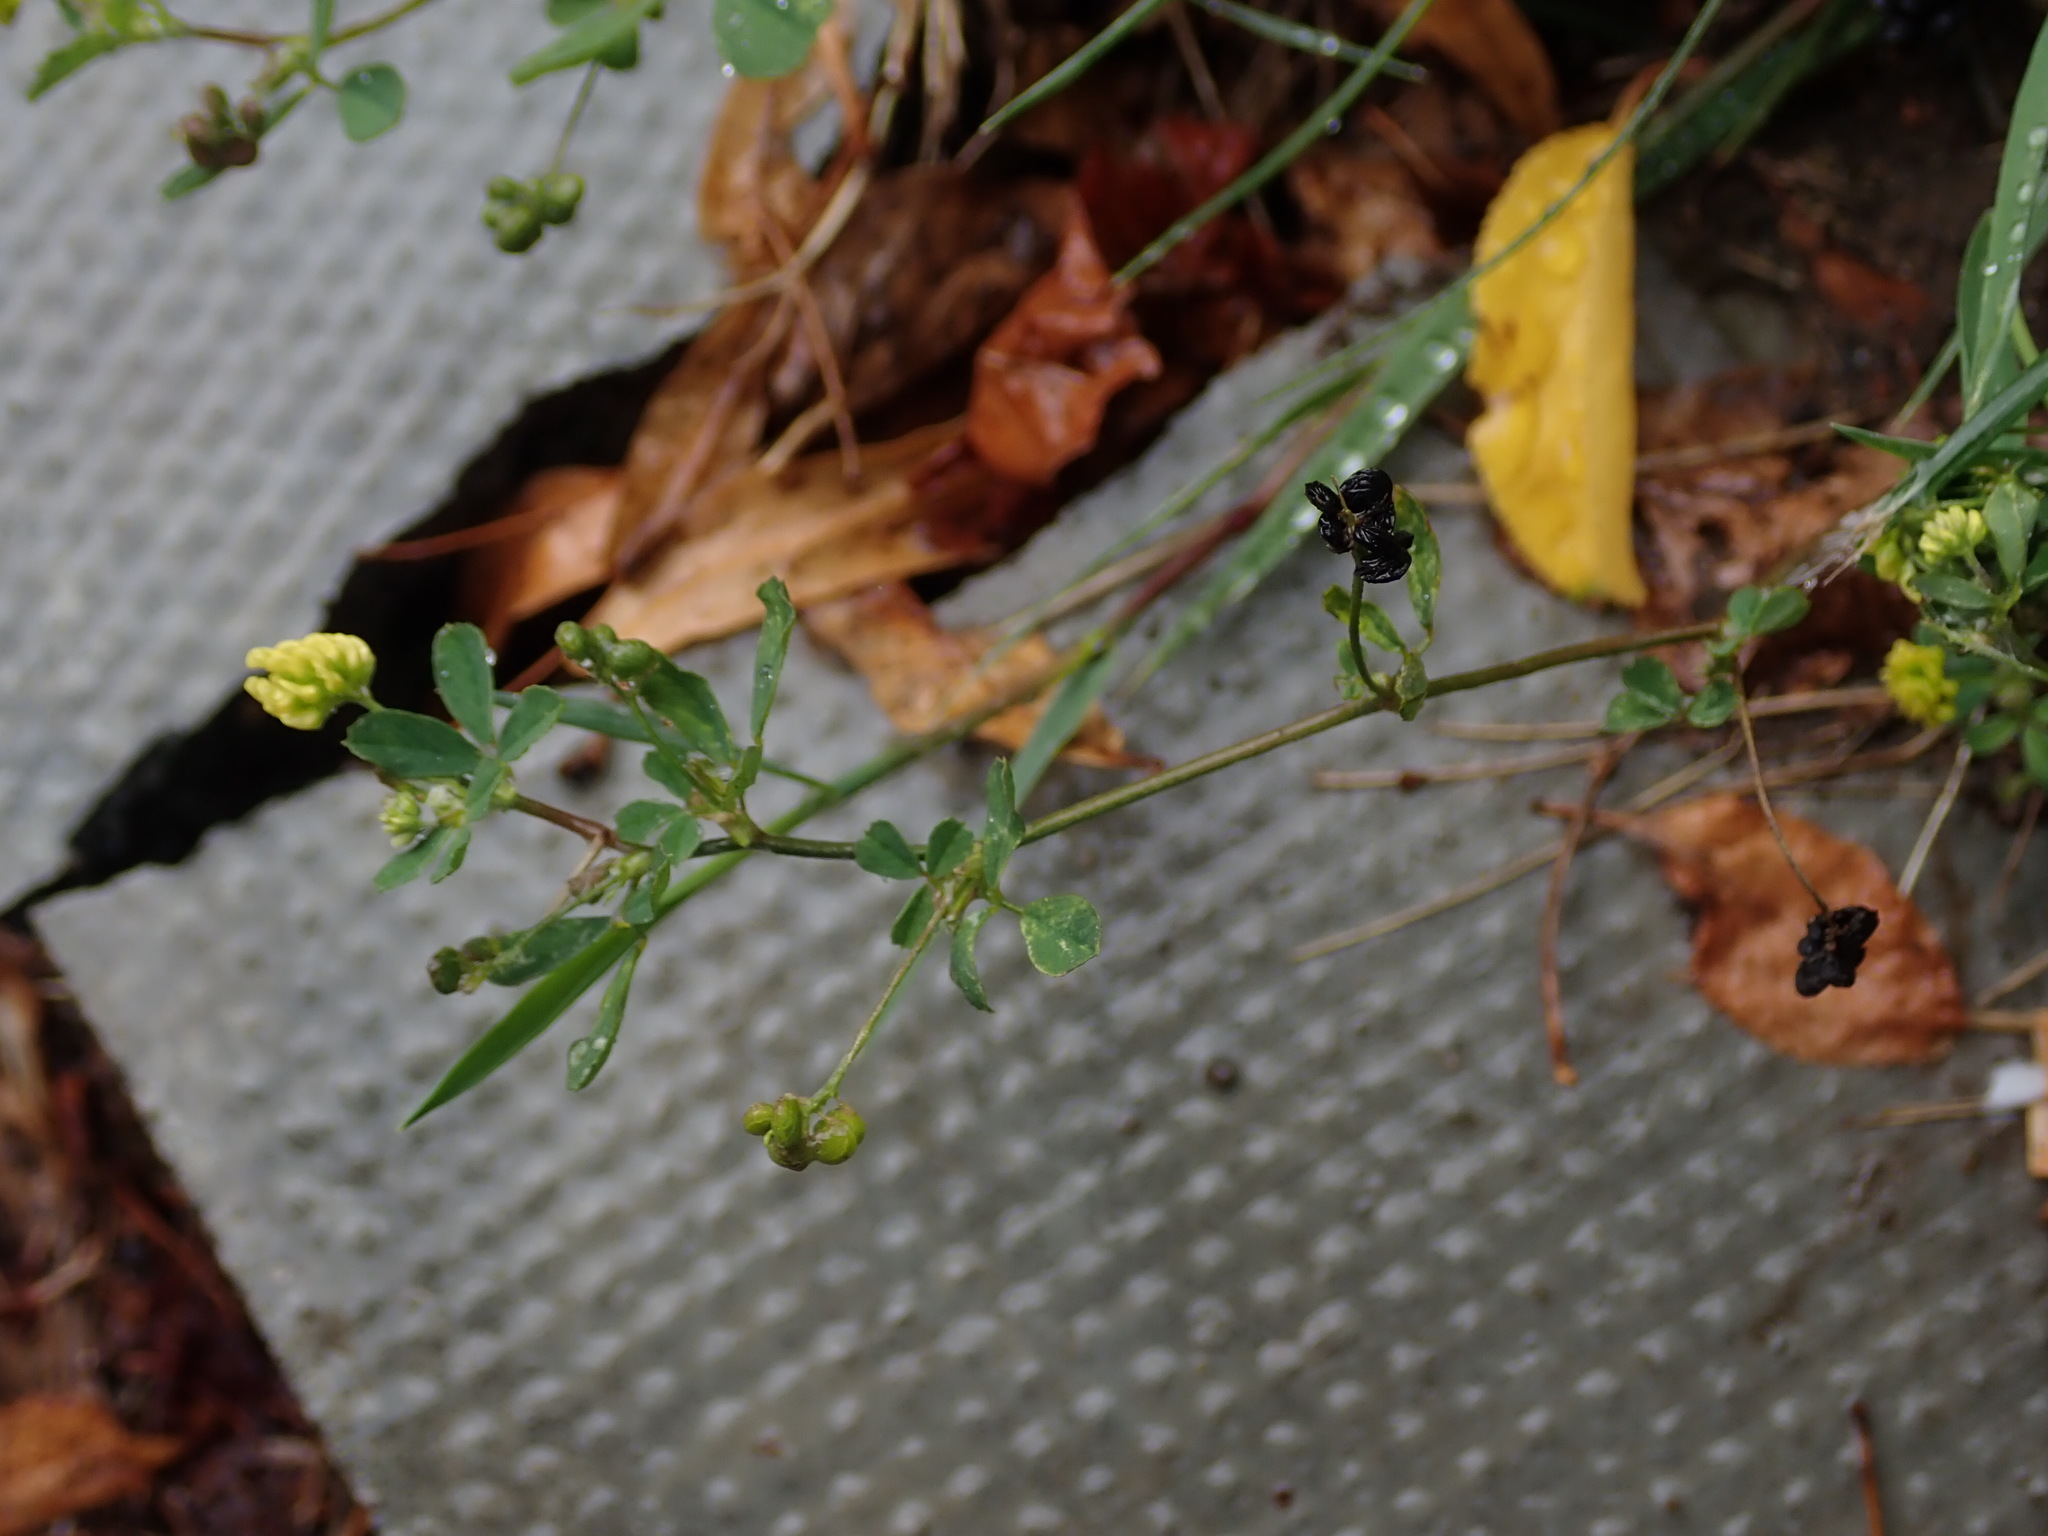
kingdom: Plantae
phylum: Tracheophyta
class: Magnoliopsida
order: Fabales
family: Fabaceae
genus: Medicago
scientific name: Medicago lupulina
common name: Black medick
